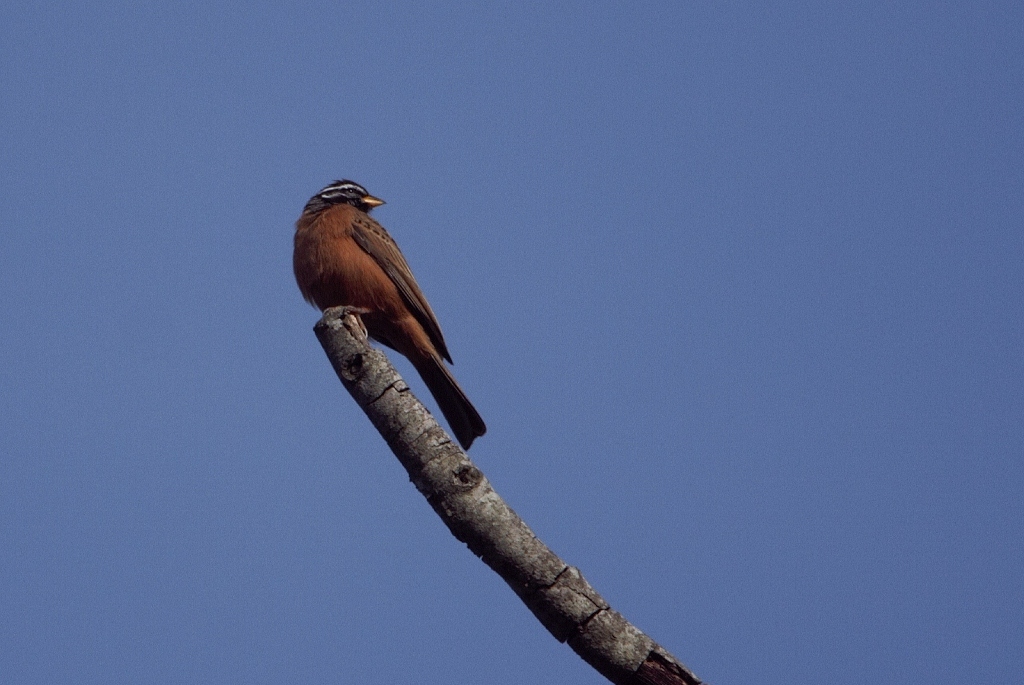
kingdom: Animalia
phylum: Chordata
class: Aves
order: Passeriformes
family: Emberizidae
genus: Emberiza
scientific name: Emberiza tahapisi
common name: Cinnamon-breasted bunting
